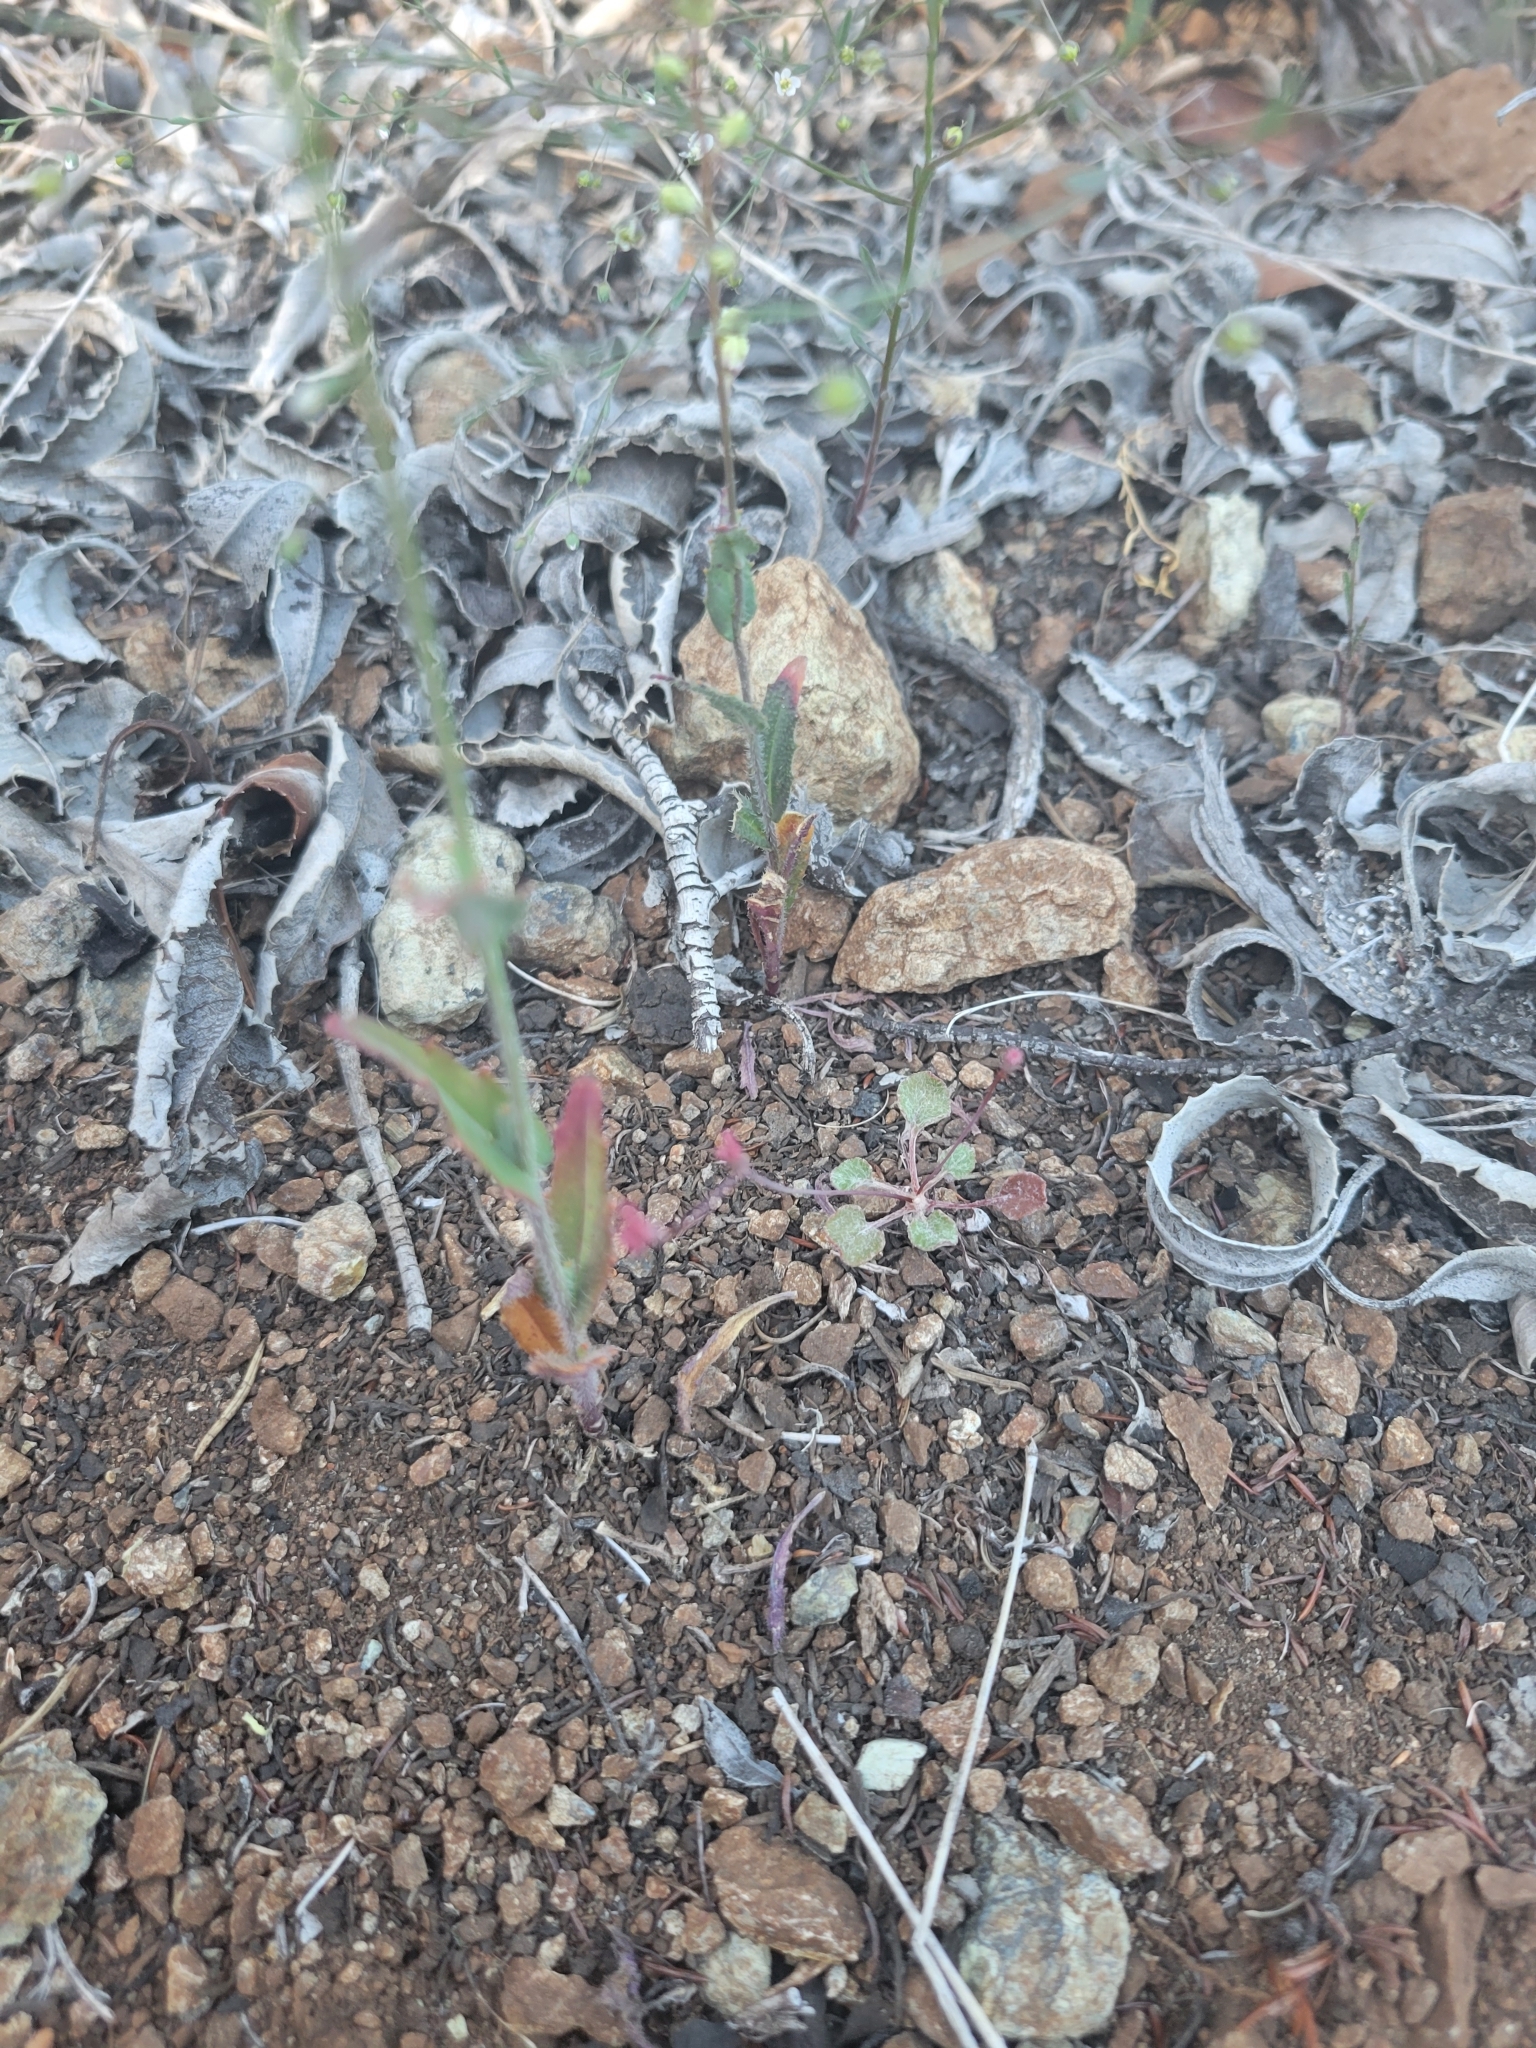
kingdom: Plantae
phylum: Tracheophyta
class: Magnoliopsida
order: Brassicales
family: Brassicaceae
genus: Streptanthus
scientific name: Streptanthus glandulosus
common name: Jewel-flower
